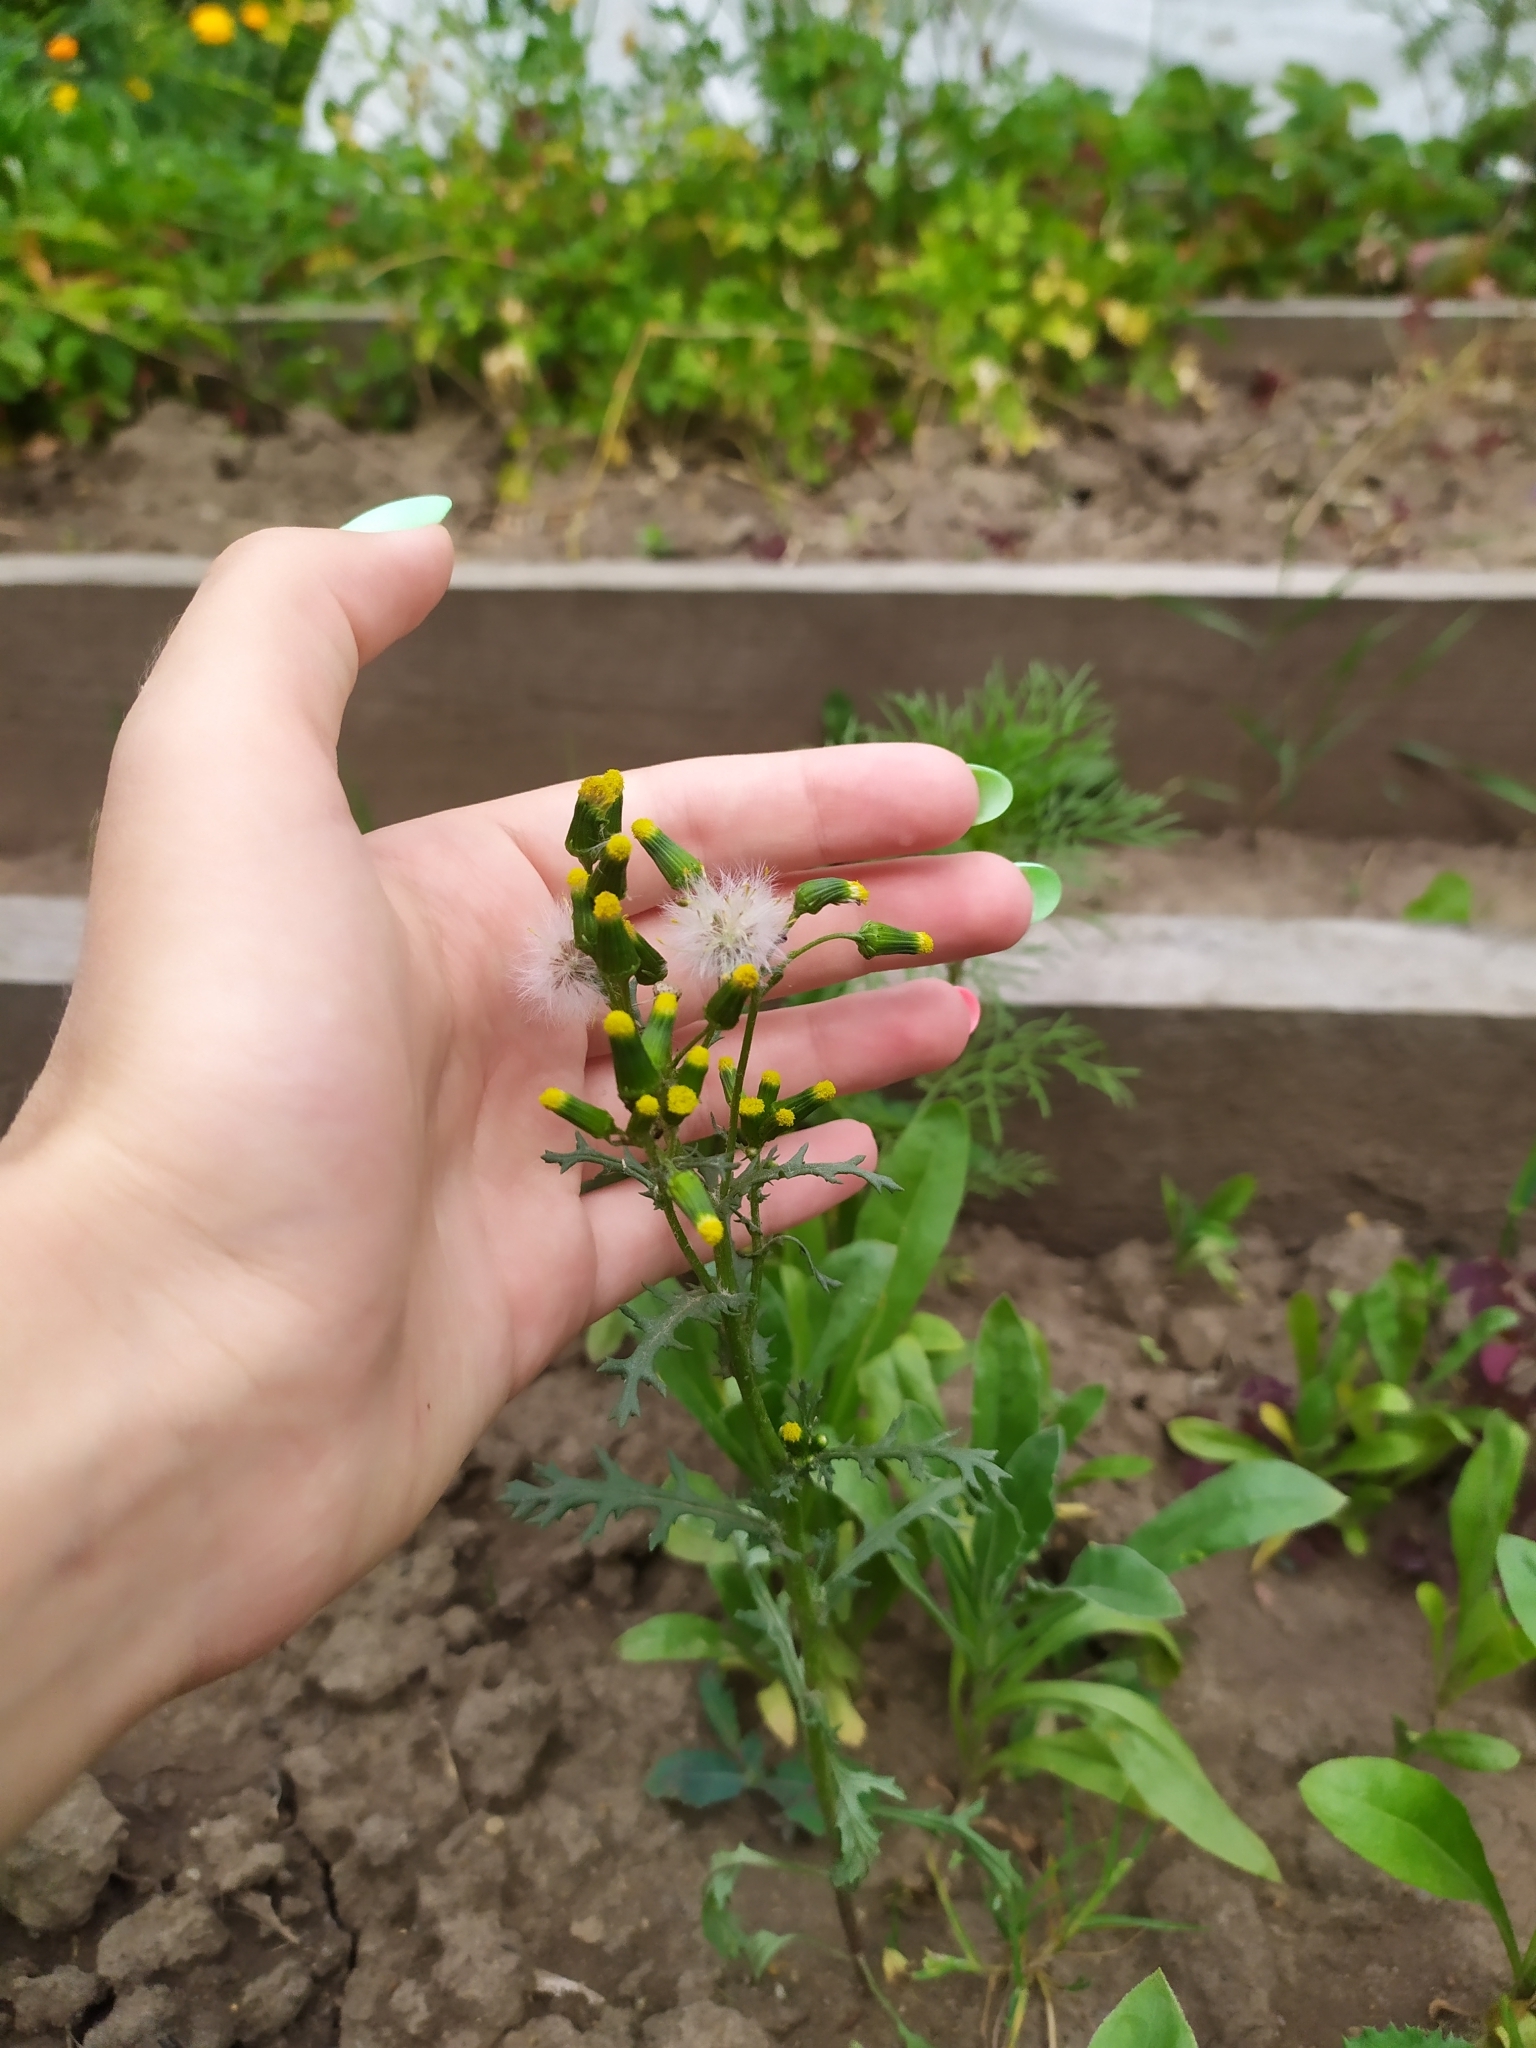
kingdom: Plantae
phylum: Tracheophyta
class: Magnoliopsida
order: Asterales
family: Asteraceae
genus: Senecio
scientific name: Senecio vulgaris
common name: Old-man-in-the-spring
